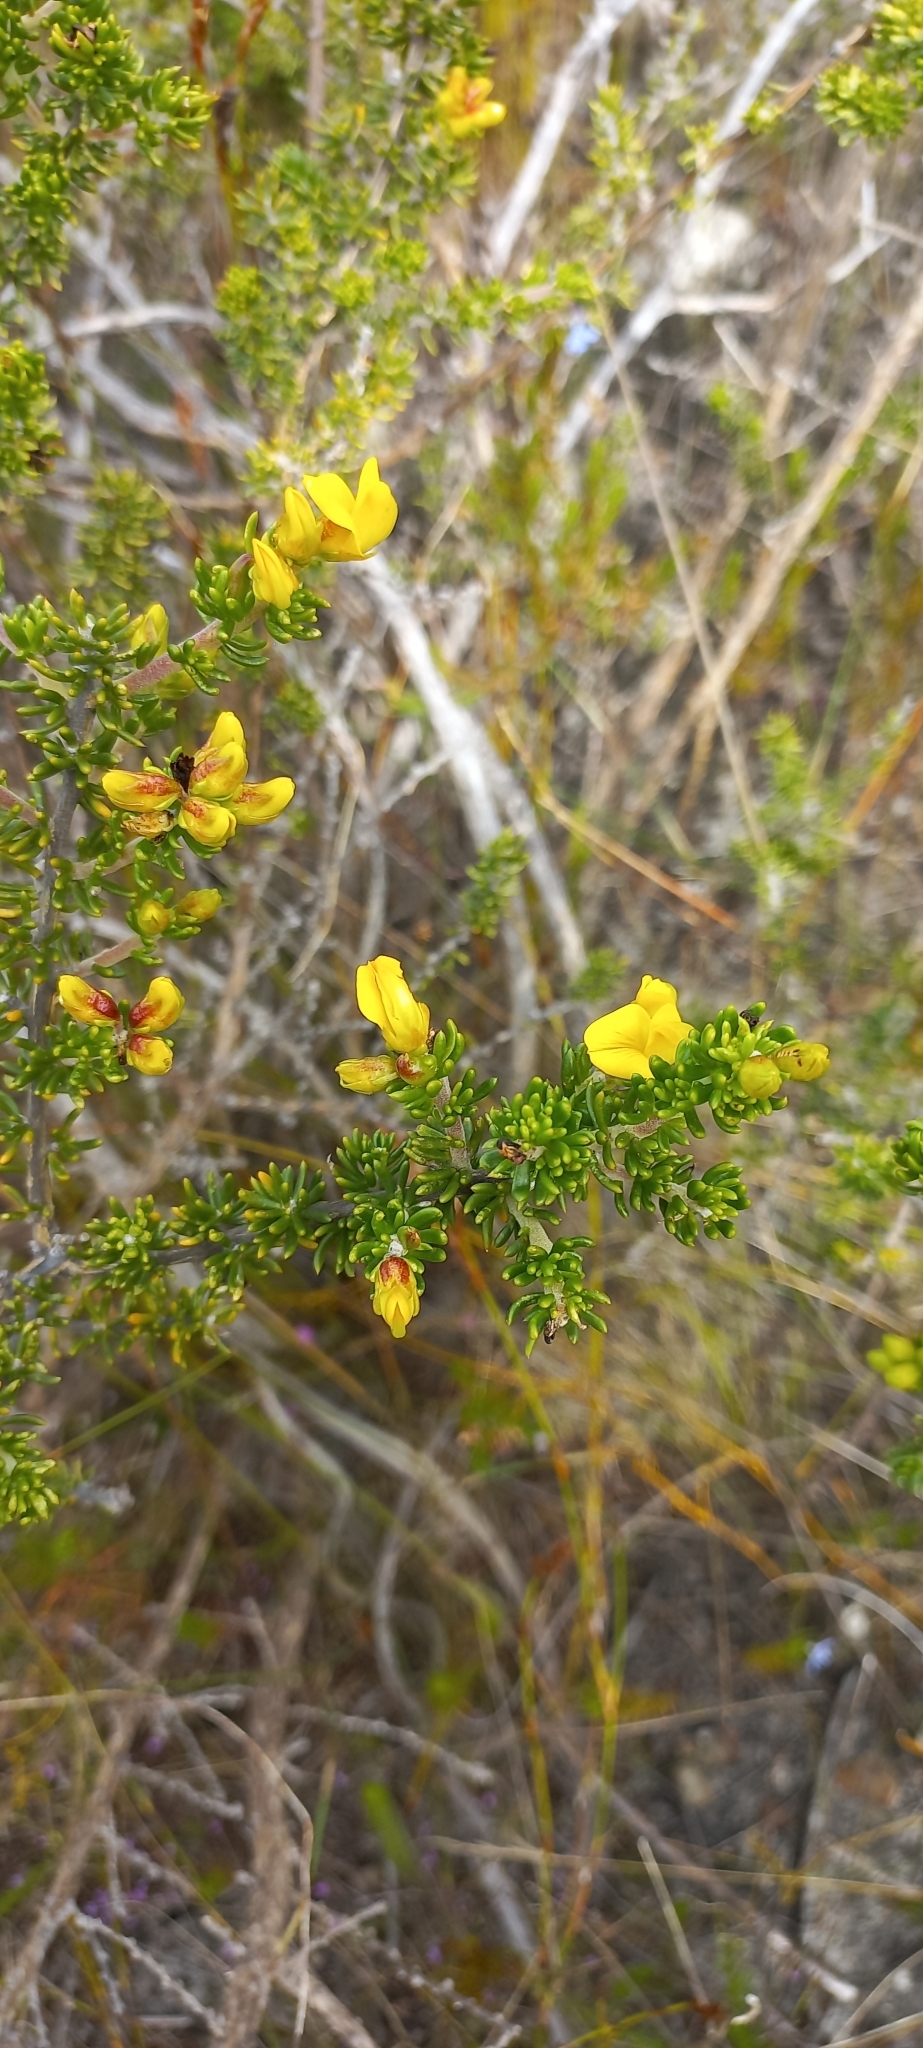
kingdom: Plantae
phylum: Tracheophyta
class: Magnoliopsida
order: Fabales
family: Fabaceae
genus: Aspalathus
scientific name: Aspalathus carnosa
